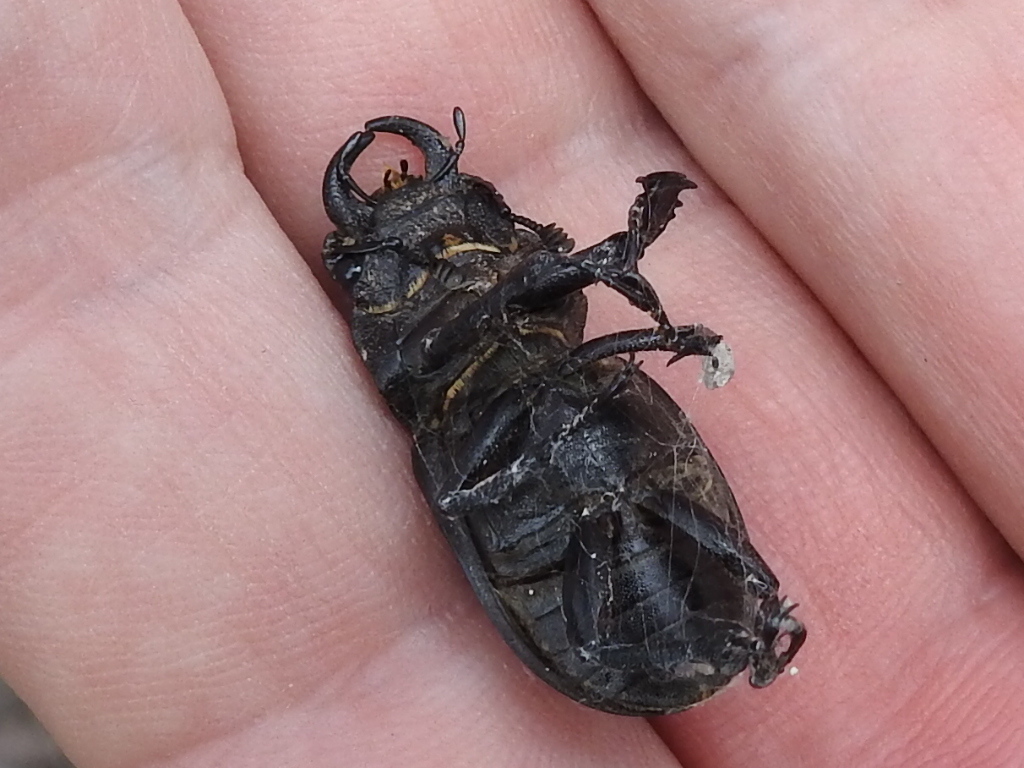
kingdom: Animalia
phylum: Arthropoda
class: Insecta
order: Coleoptera
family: Lucanidae
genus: Lucanus
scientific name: Lucanus mazama
